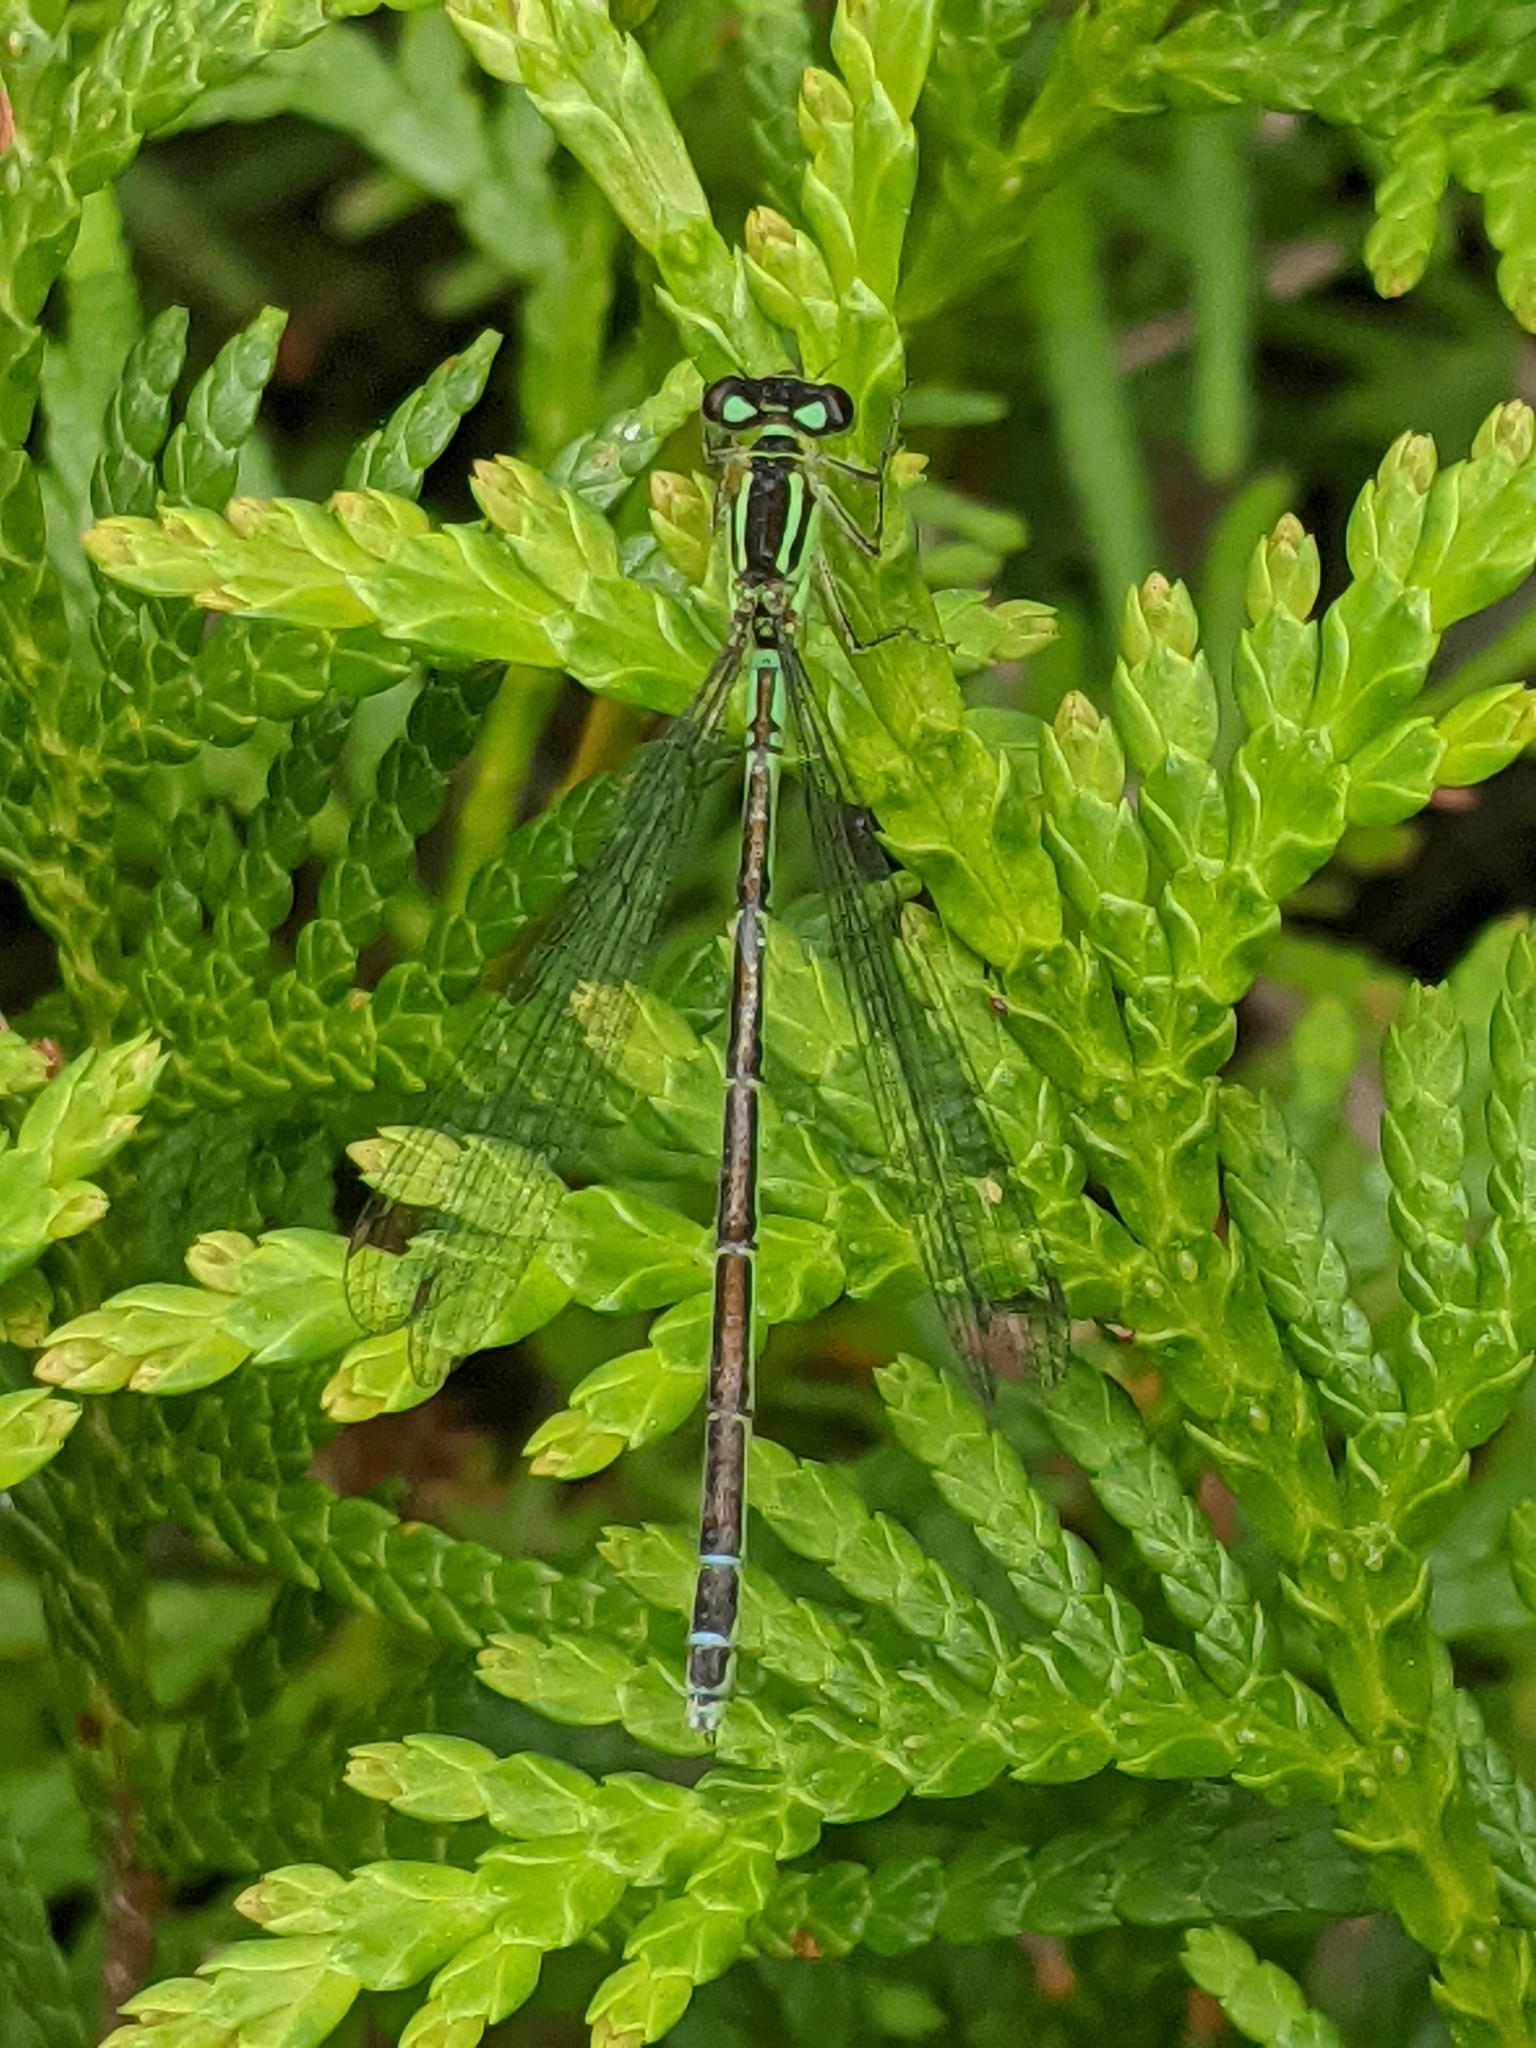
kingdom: Animalia
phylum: Arthropoda
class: Insecta
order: Odonata
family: Coenagrionidae
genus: Ischnura
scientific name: Ischnura verticalis
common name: Eastern forktail
